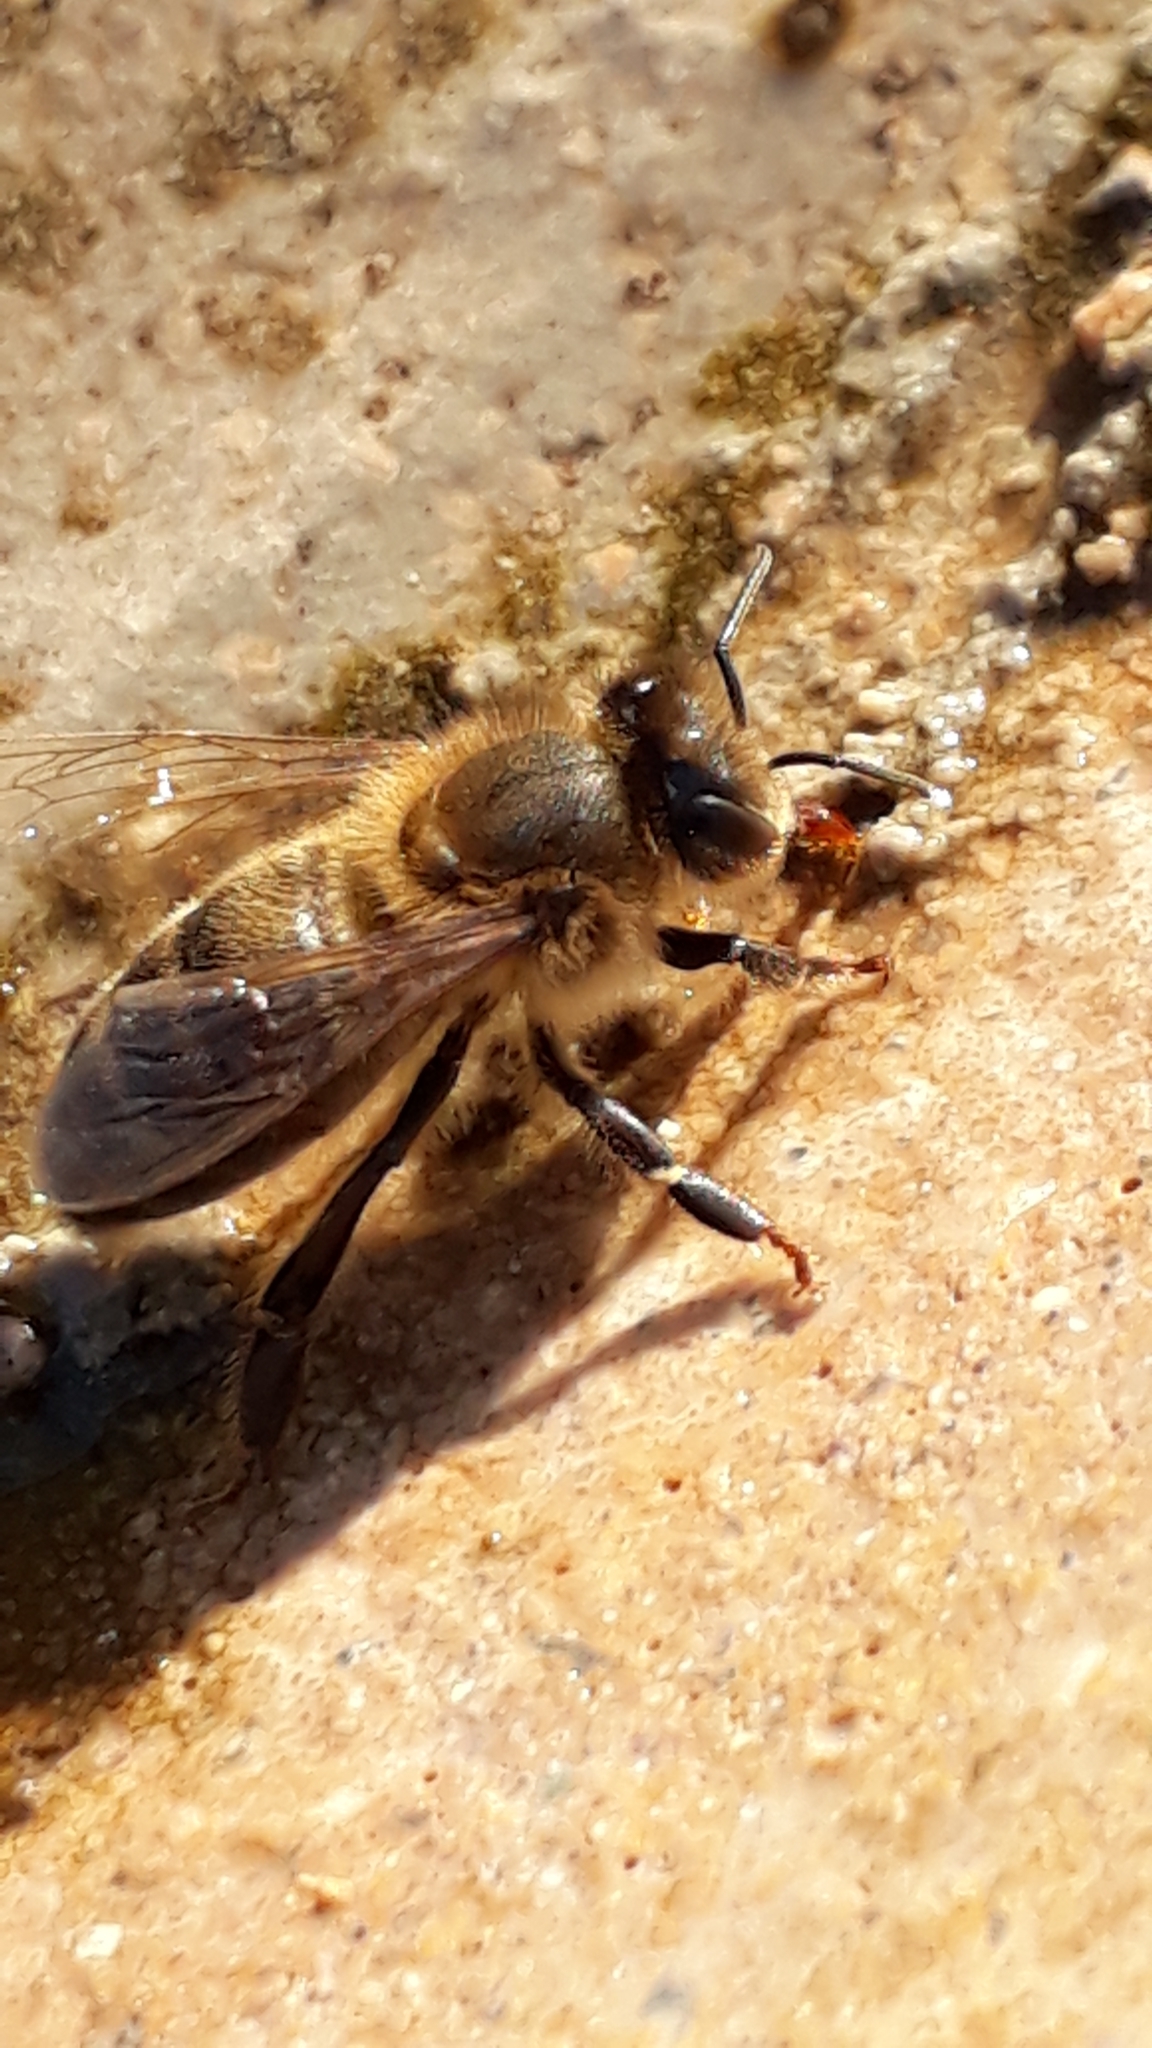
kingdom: Animalia
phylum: Arthropoda
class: Insecta
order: Hymenoptera
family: Apidae
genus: Apis
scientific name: Apis mellifera
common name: Honey bee
